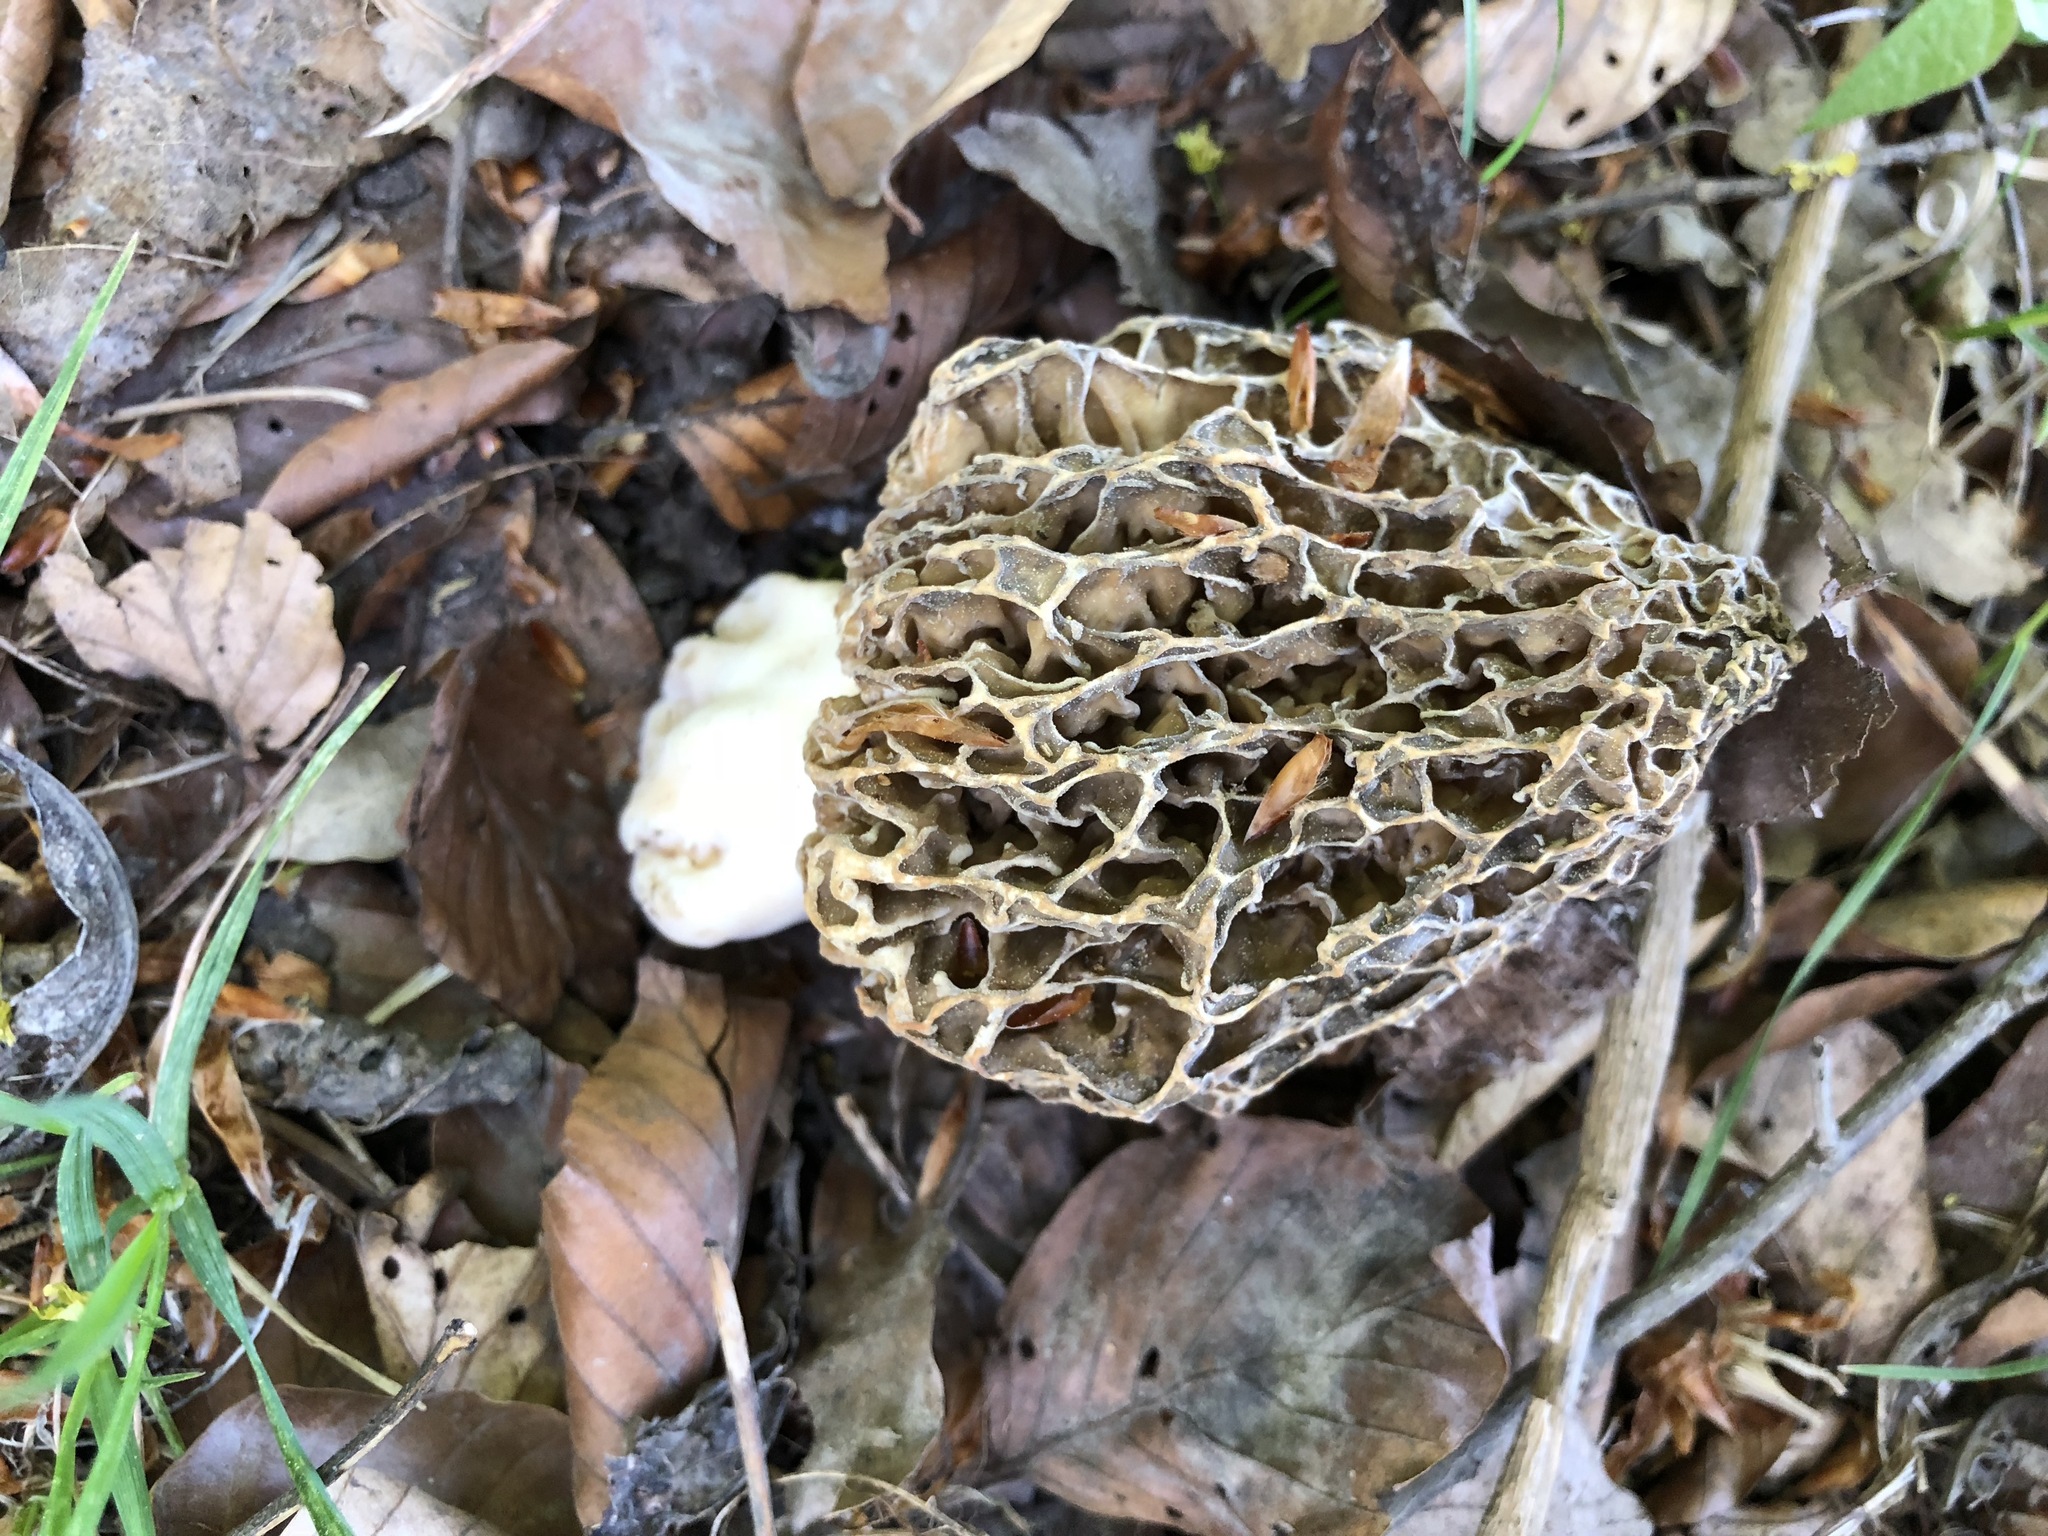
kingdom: Fungi
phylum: Ascomycota
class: Pezizomycetes
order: Pezizales
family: Morchellaceae
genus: Morchella
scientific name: Morchella esculenta
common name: Morel
